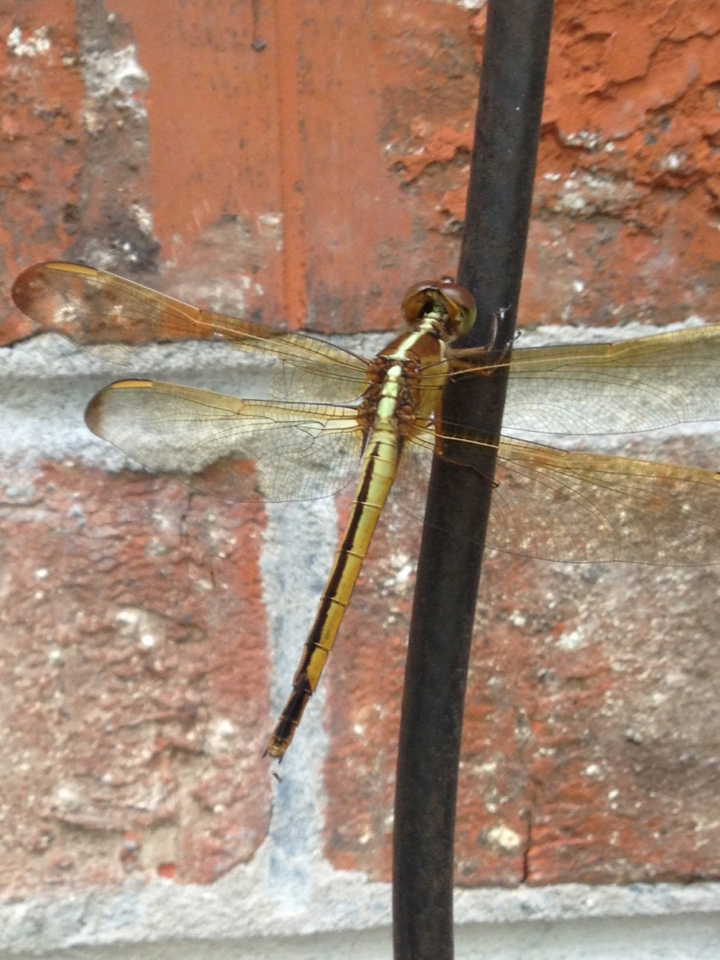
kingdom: Animalia
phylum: Arthropoda
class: Insecta
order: Odonata
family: Libellulidae
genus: Libellula
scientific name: Libellula needhami
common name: Needham's skimmer
